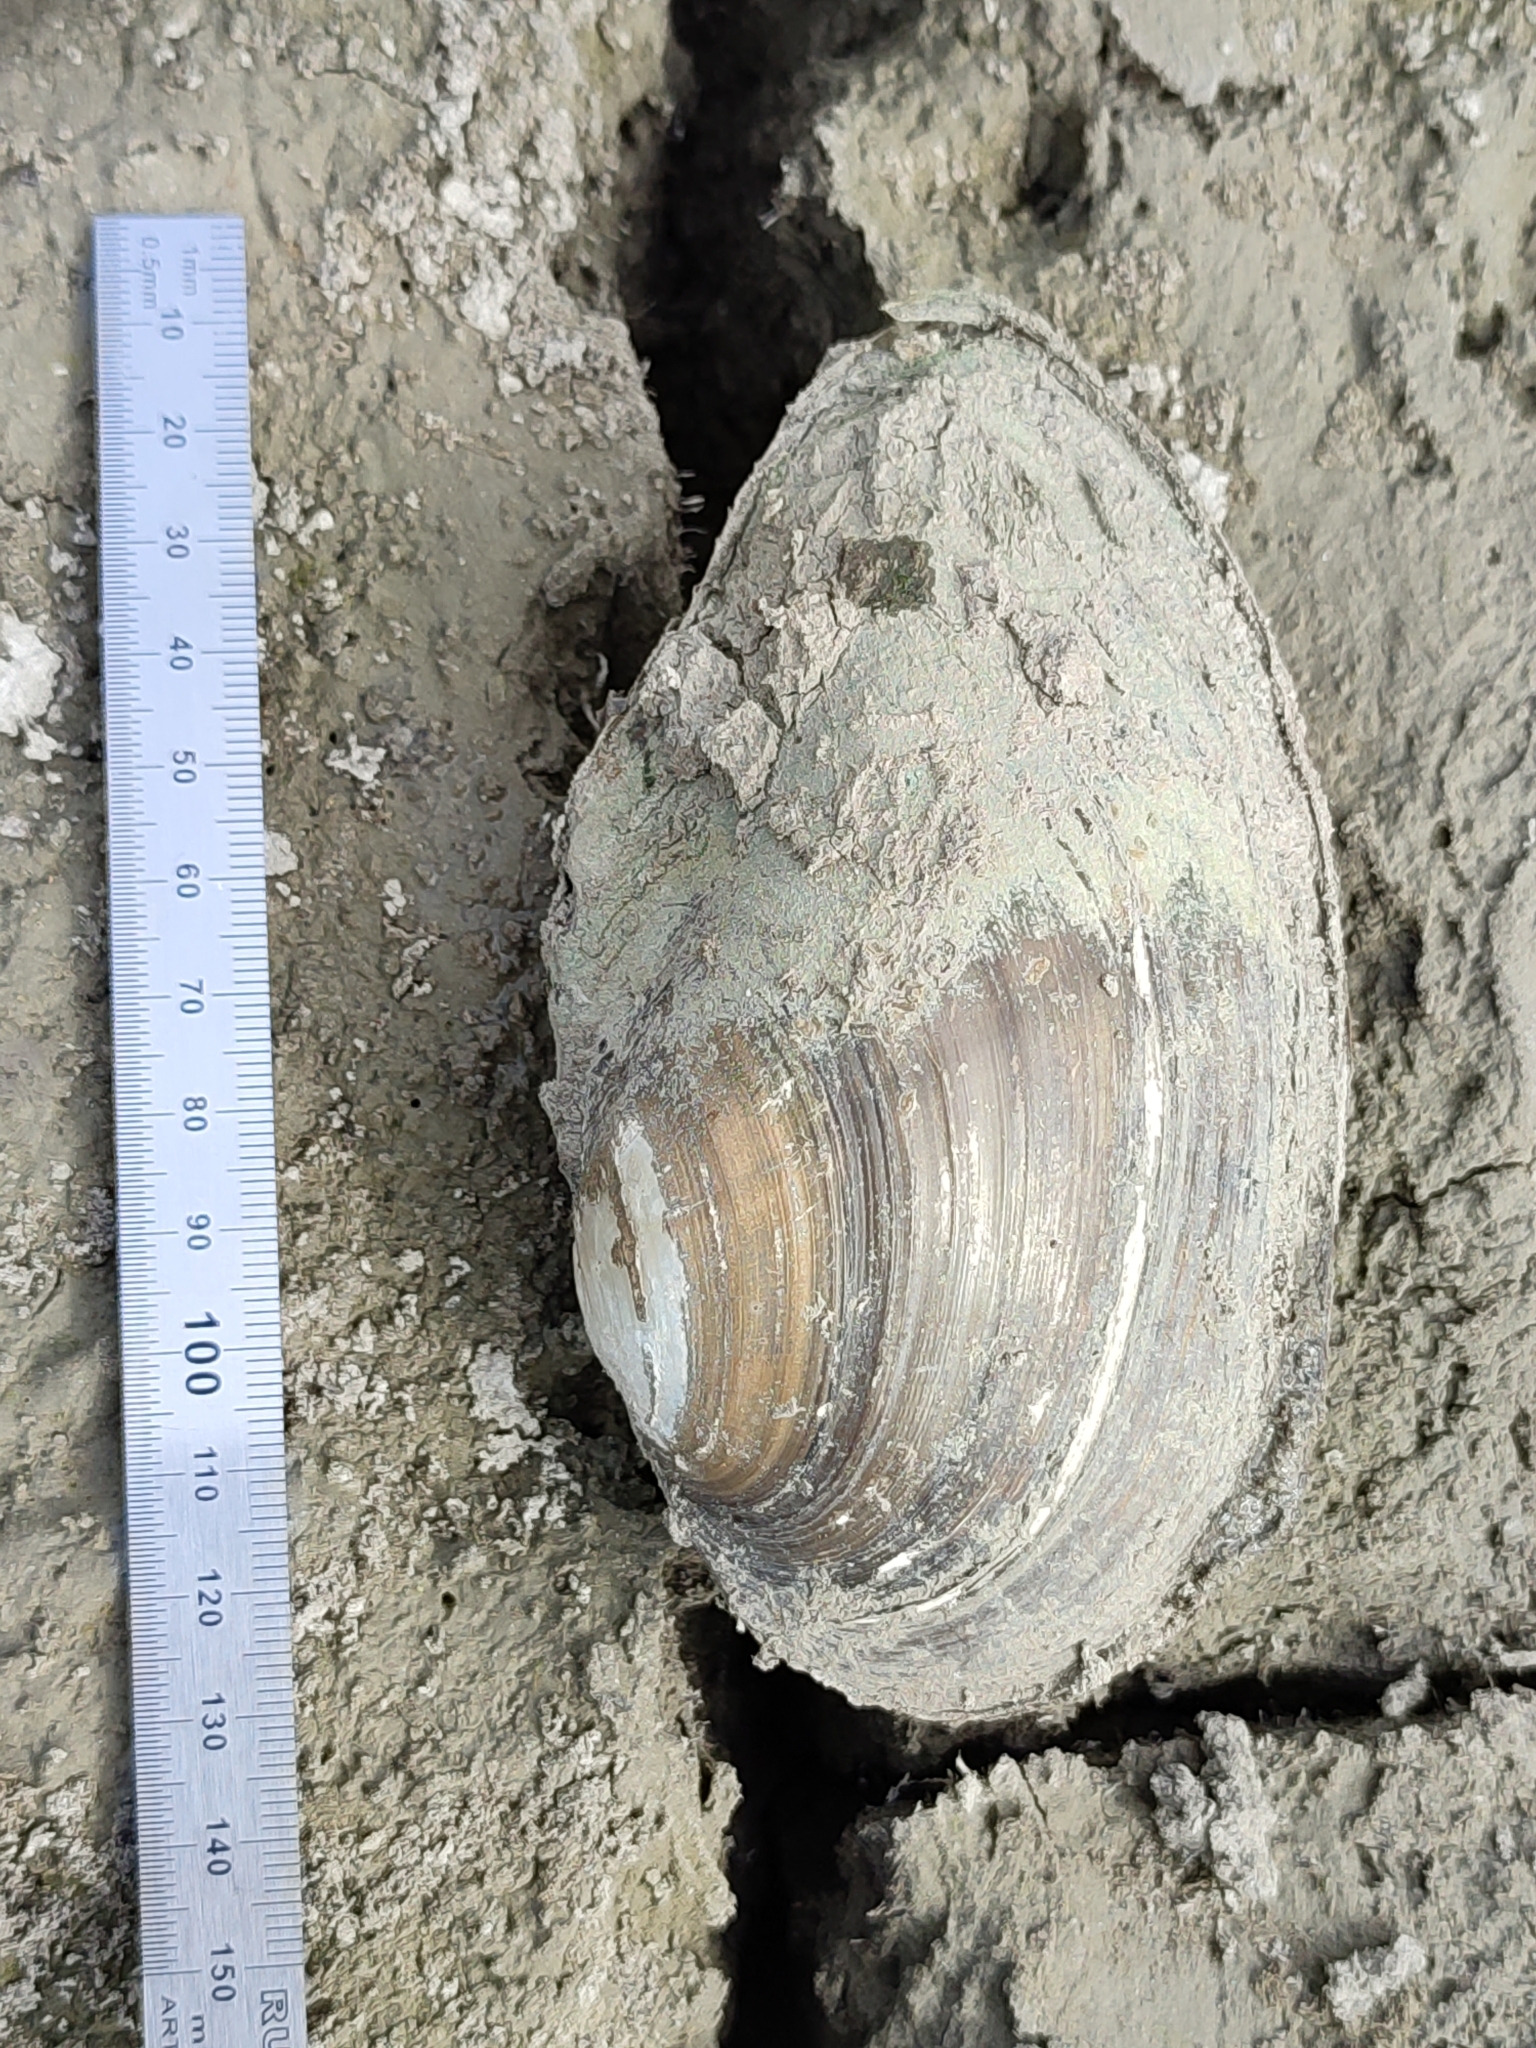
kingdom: Animalia
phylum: Mollusca
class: Bivalvia
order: Unionida
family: Unionidae
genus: Anodonta
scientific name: Anodonta anatina
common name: Duck mussel
